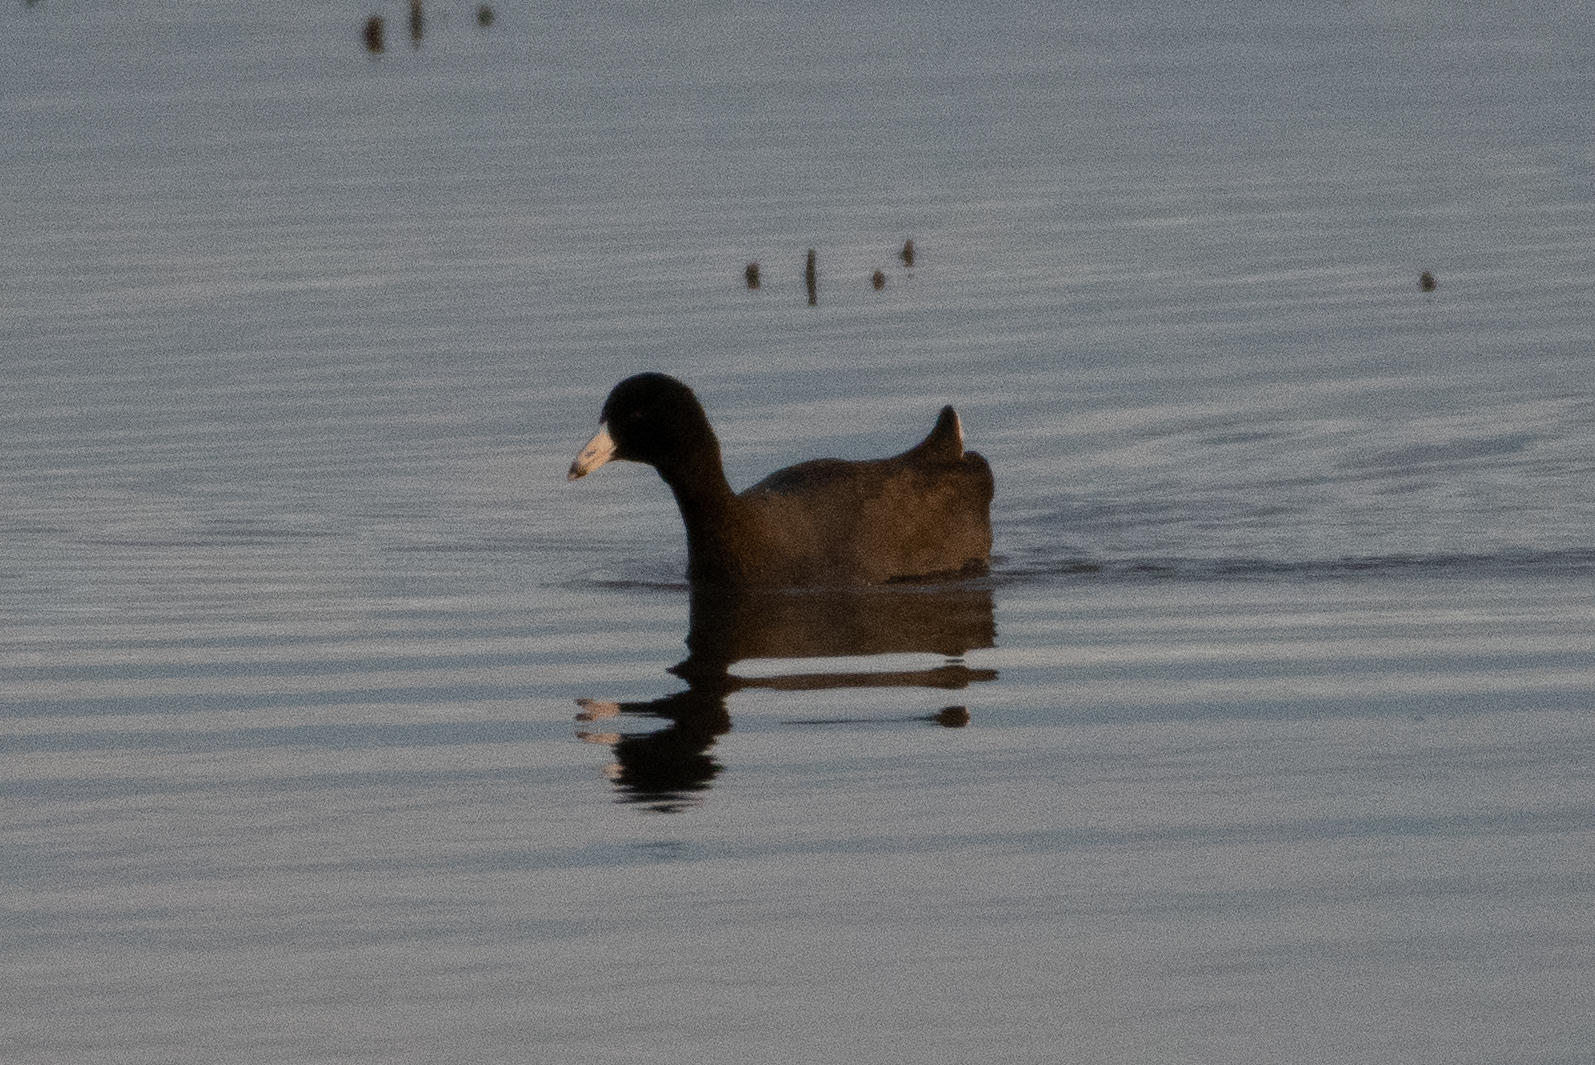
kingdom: Animalia
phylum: Chordata
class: Aves
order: Gruiformes
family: Rallidae
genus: Fulica
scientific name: Fulica americana
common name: American coot
